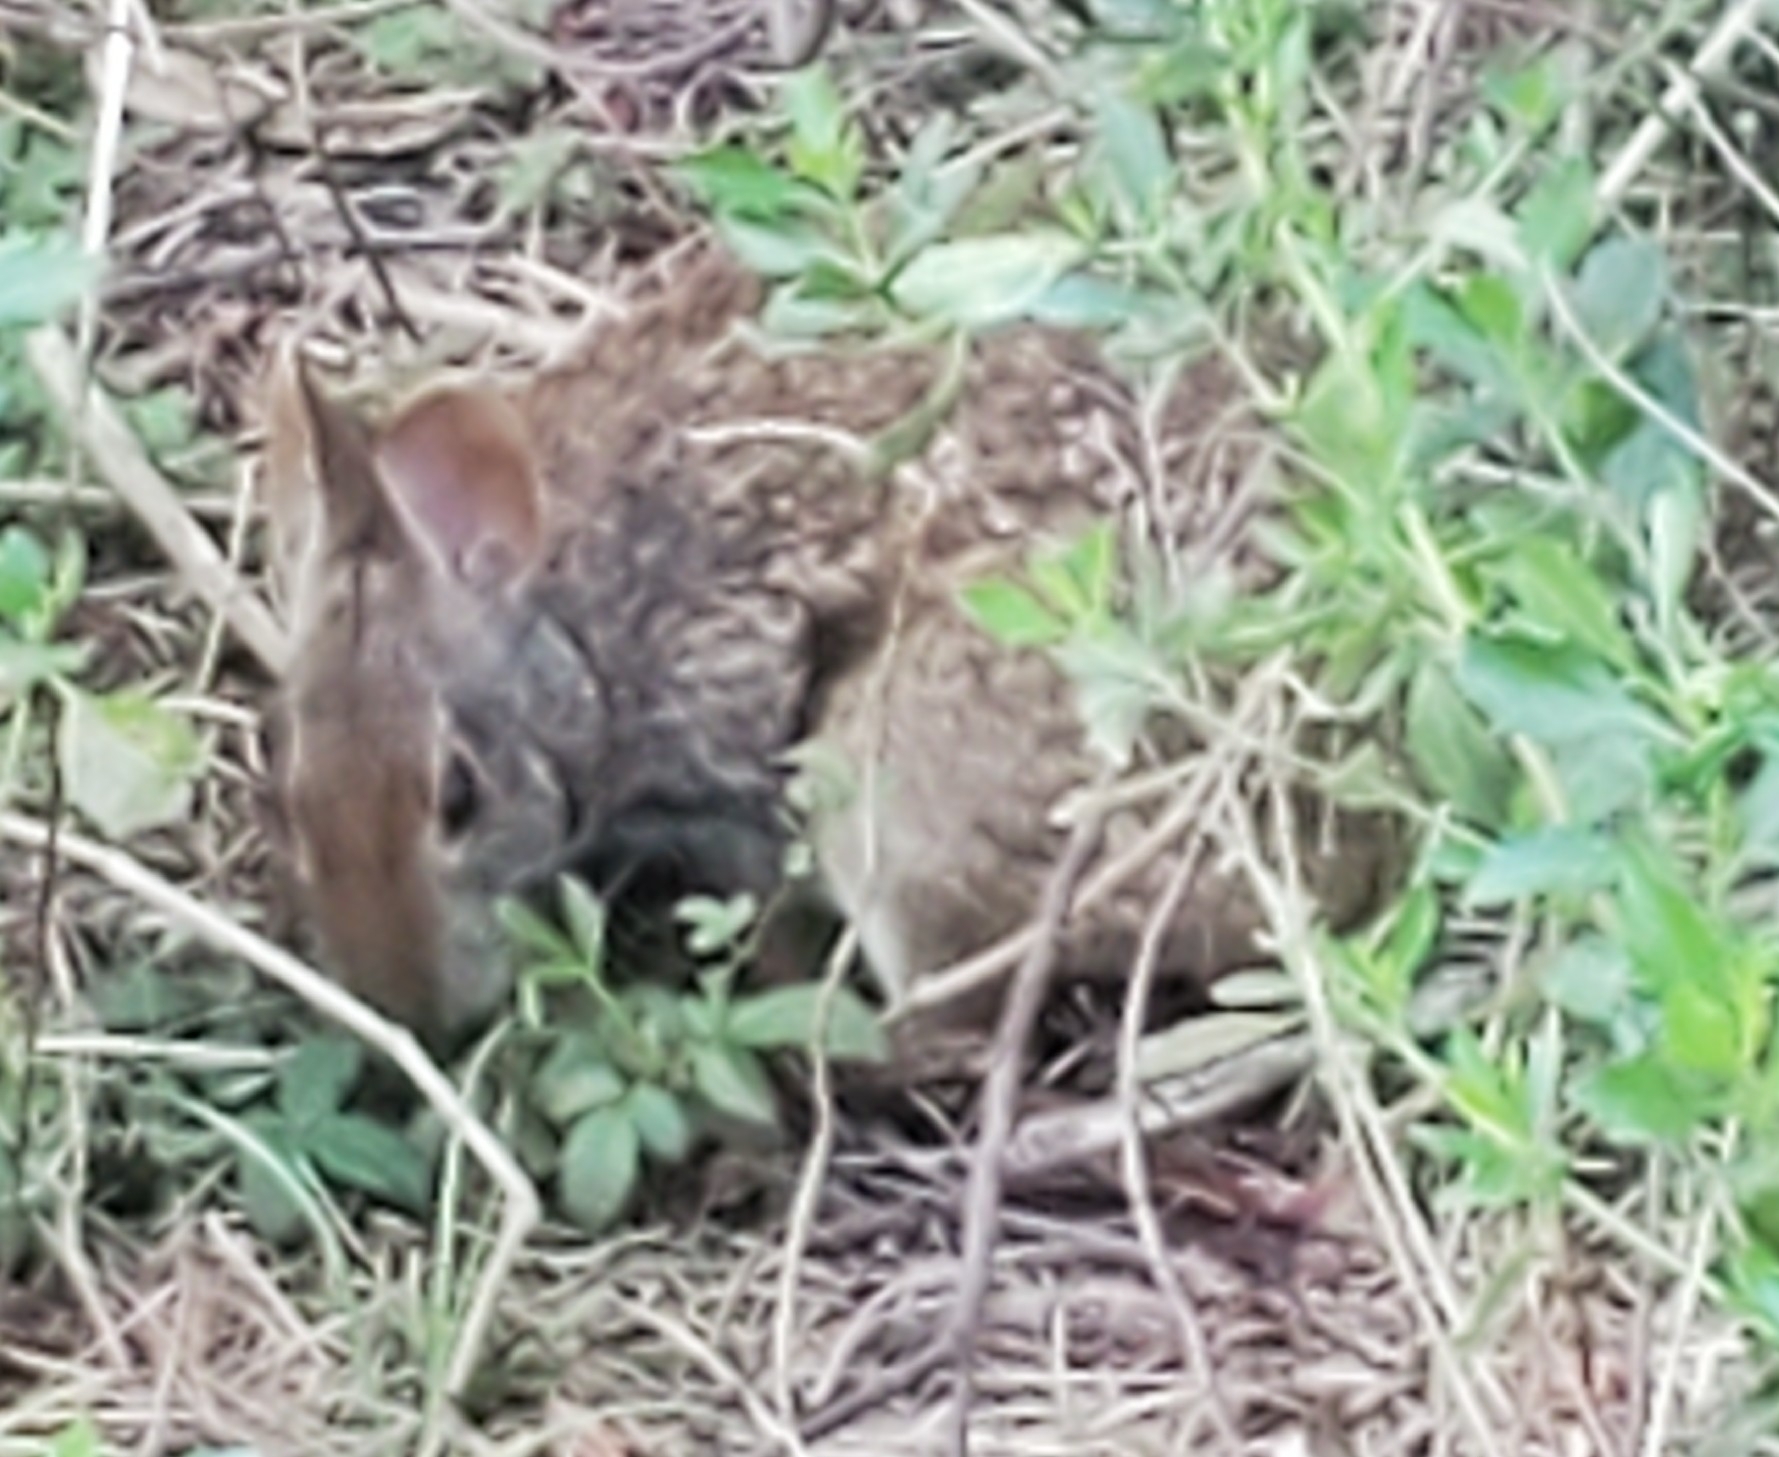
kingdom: Animalia
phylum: Chordata
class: Mammalia
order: Lagomorpha
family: Leporidae
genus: Sylvilagus
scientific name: Sylvilagus palustris
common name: Marsh rabbit
